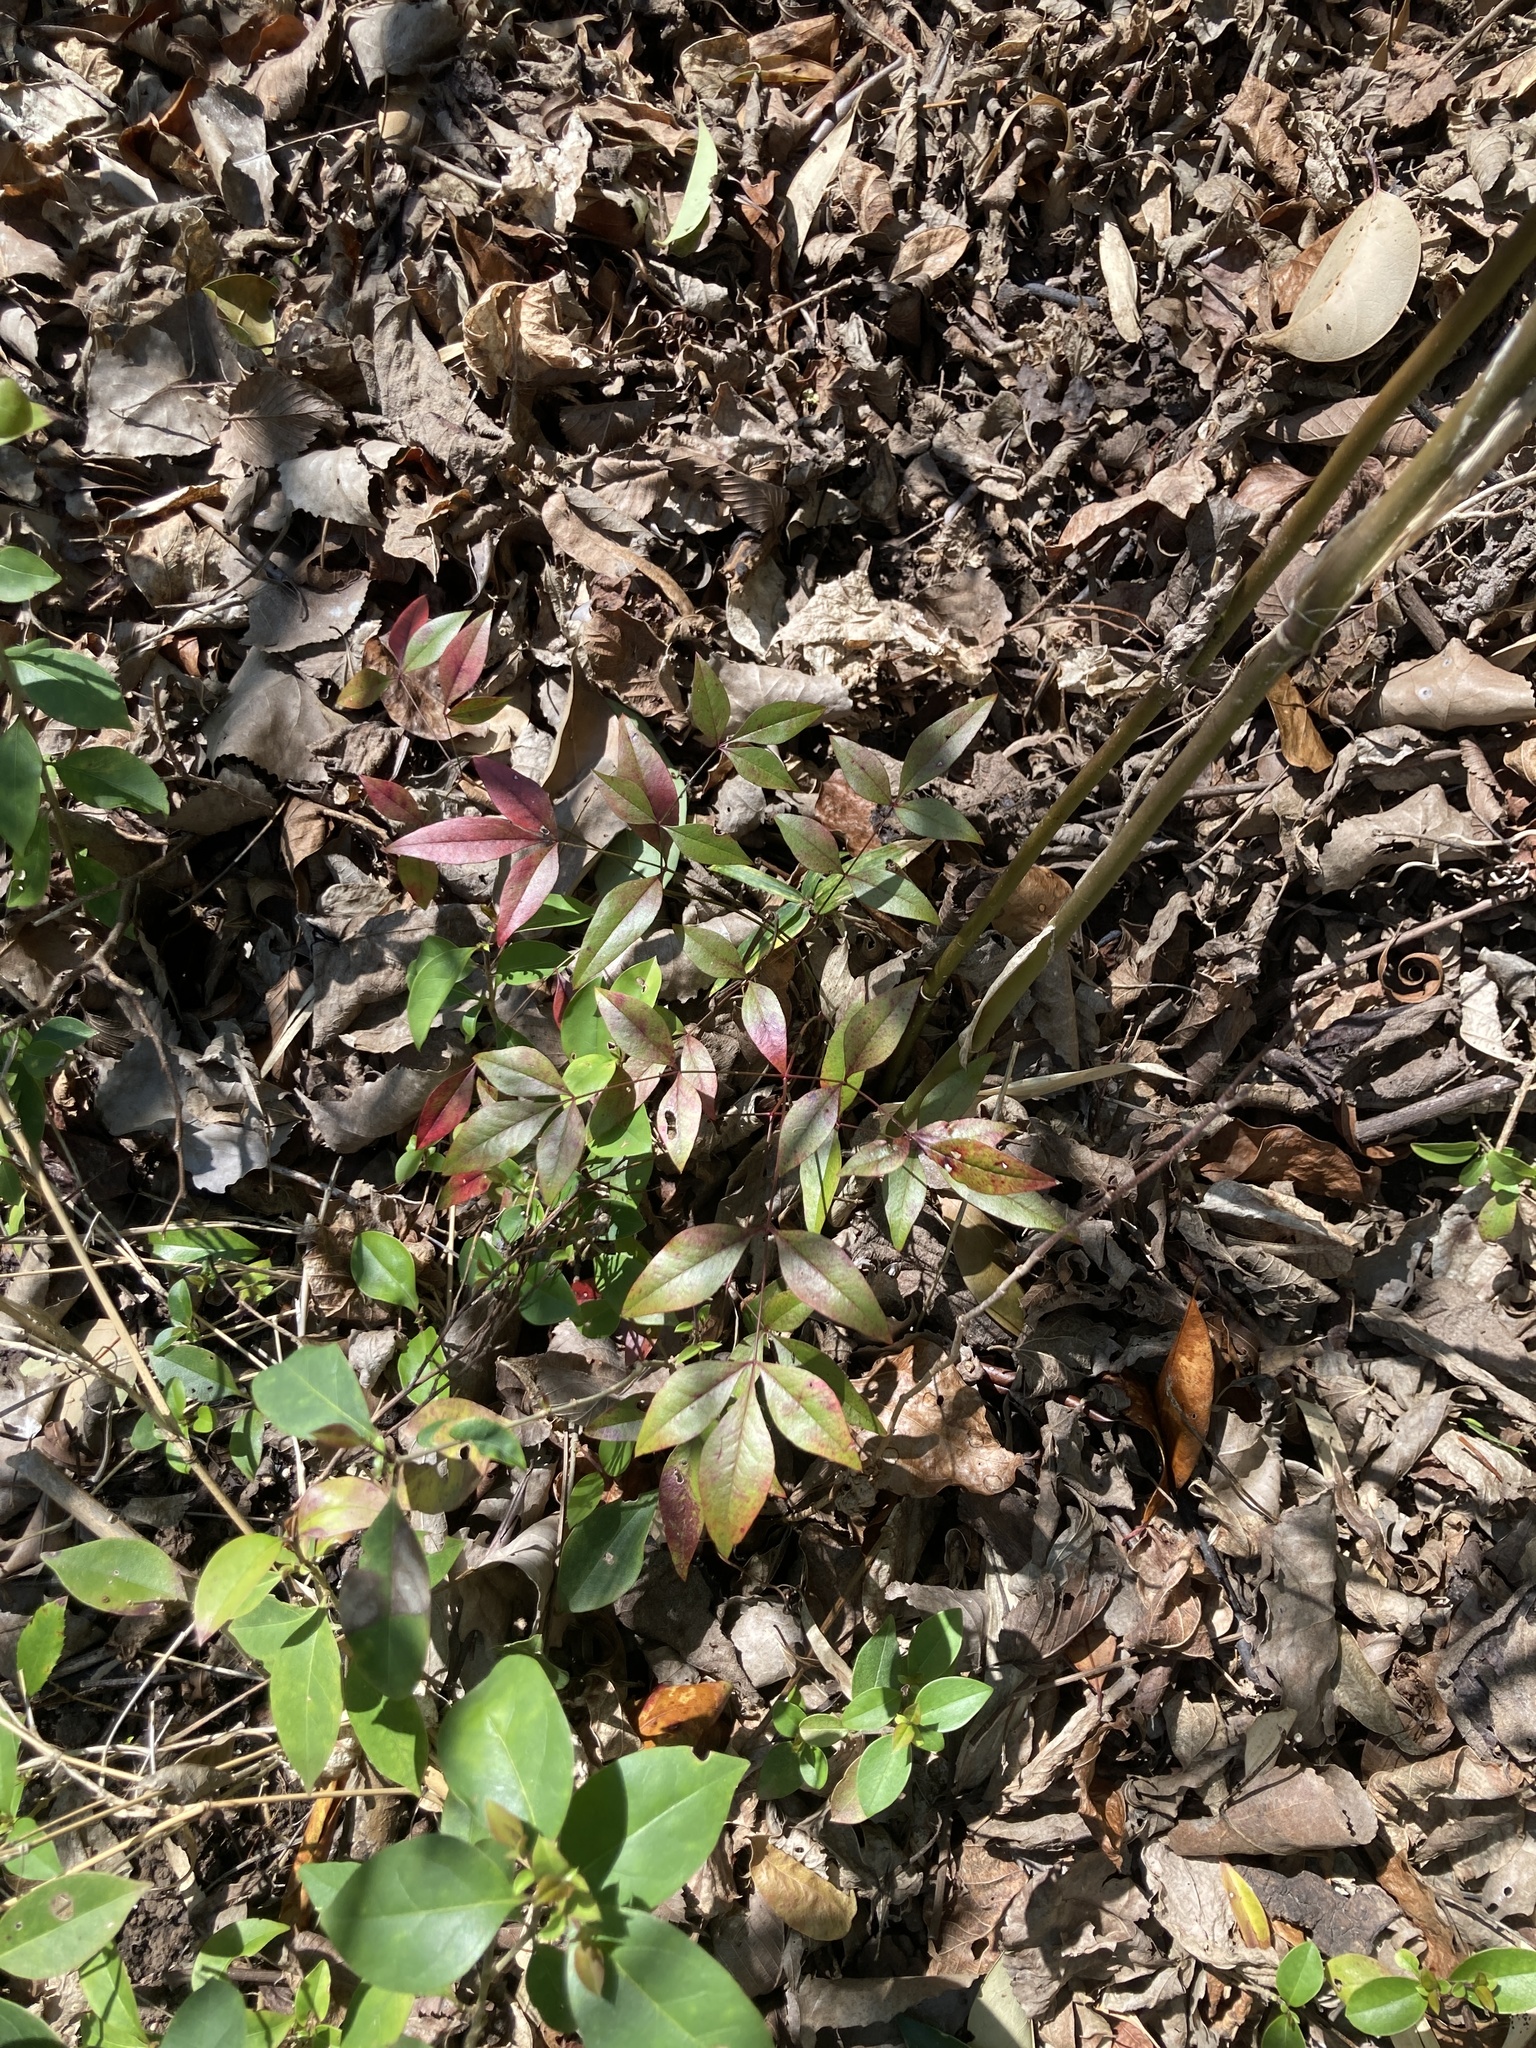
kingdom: Plantae
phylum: Tracheophyta
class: Magnoliopsida
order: Ranunculales
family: Berberidaceae
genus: Nandina
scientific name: Nandina domestica
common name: Sacred bamboo
